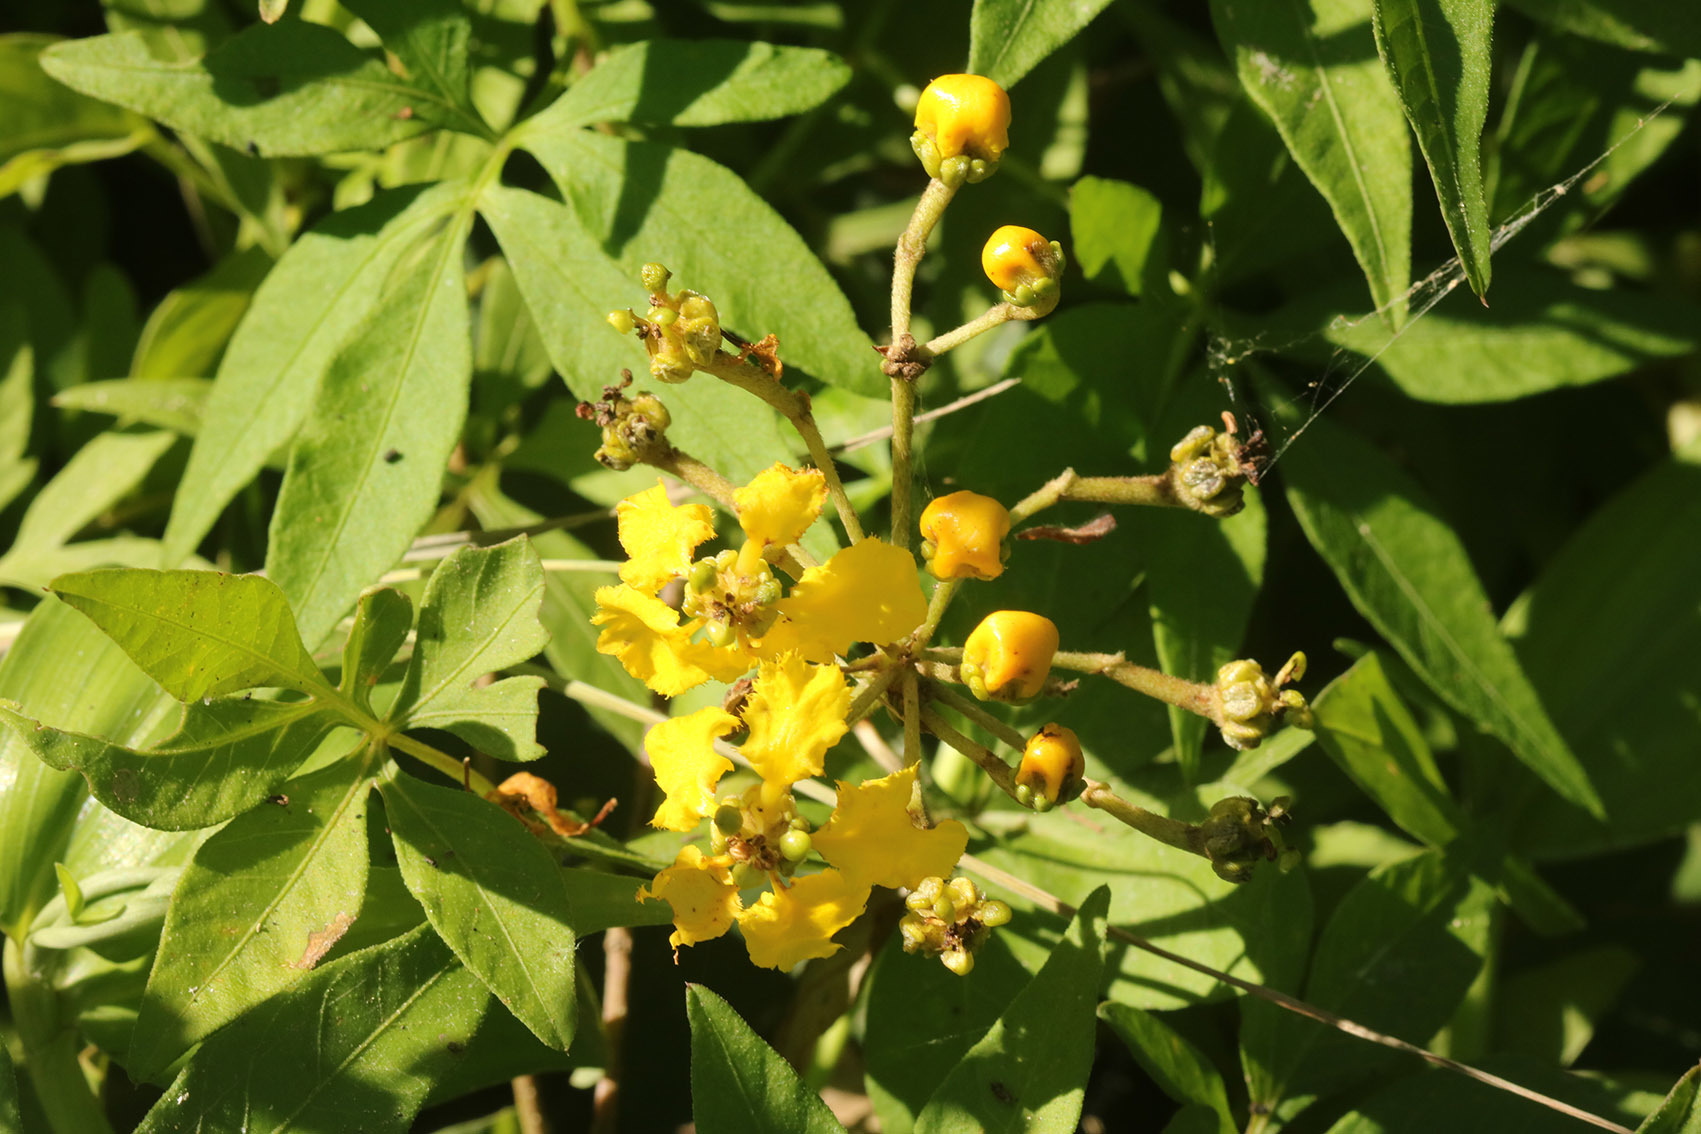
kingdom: Plantae
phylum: Tracheophyta
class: Magnoliopsida
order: Malpighiales
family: Malpighiaceae
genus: Stigmaphyllon
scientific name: Stigmaphyllon bonariense
